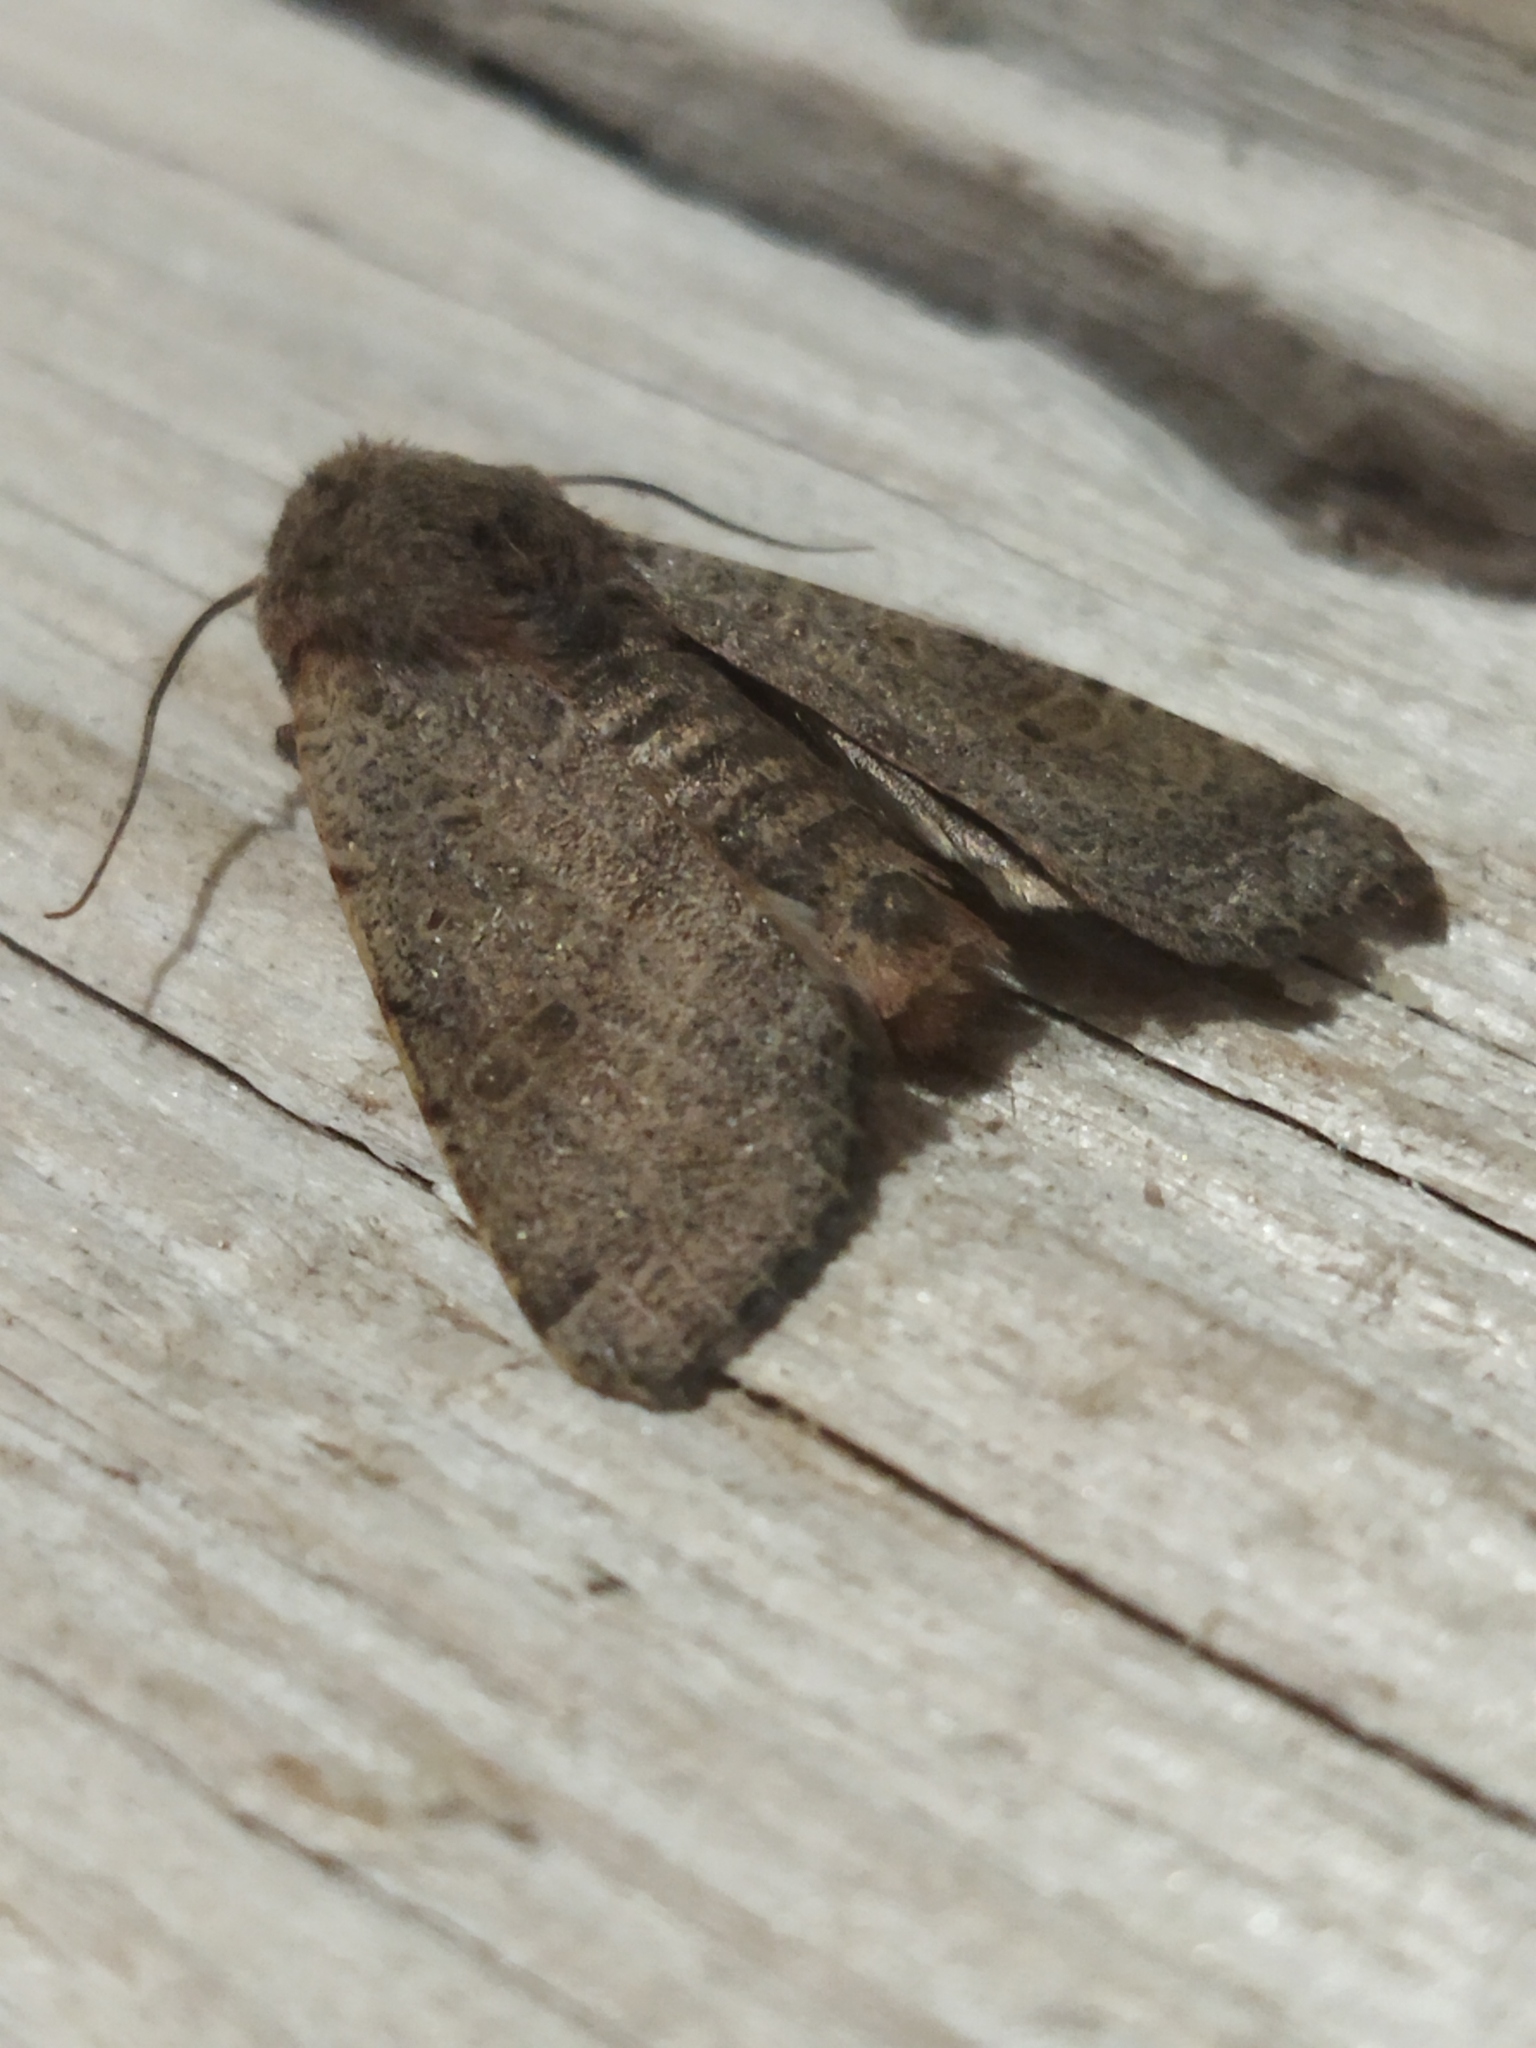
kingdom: Animalia
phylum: Arthropoda
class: Insecta
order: Lepidoptera
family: Noctuidae
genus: Agrochola
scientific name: Agrochola lychnidis
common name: Beaded chestnut
